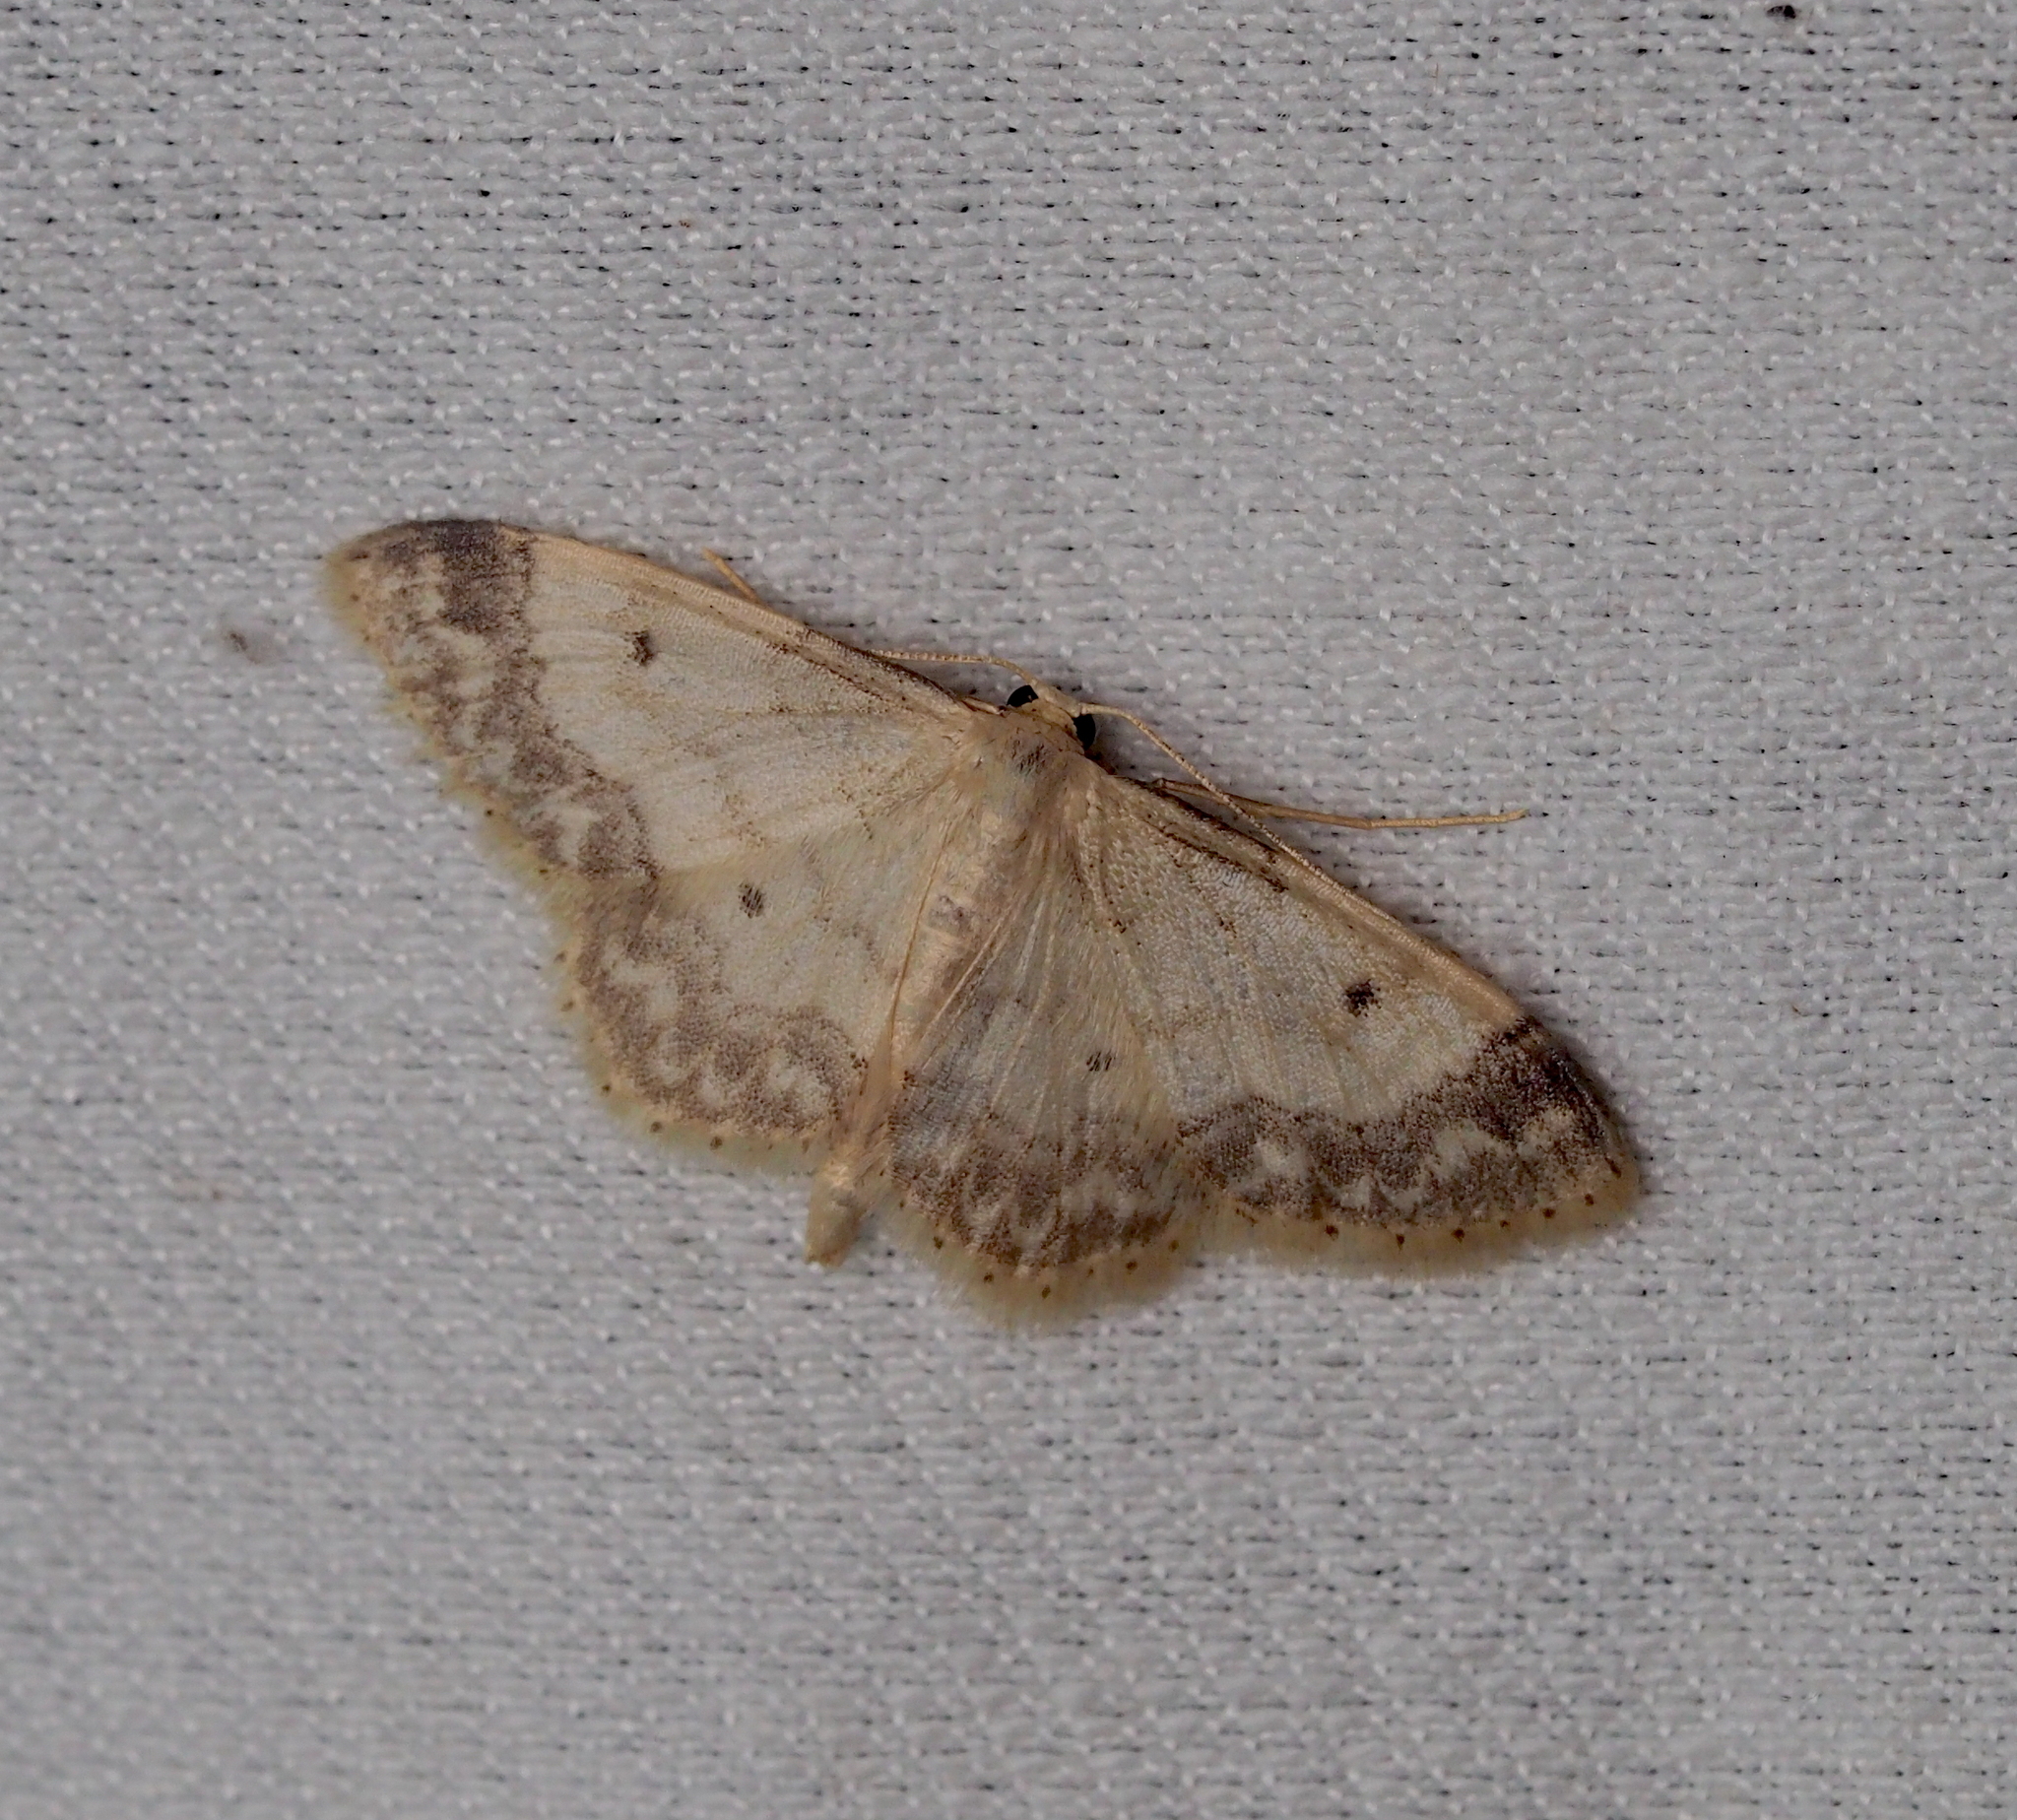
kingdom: Animalia
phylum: Arthropoda
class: Insecta
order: Lepidoptera
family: Geometridae
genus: Idaea
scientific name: Idaea biselata
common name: Small fan-footed wave
